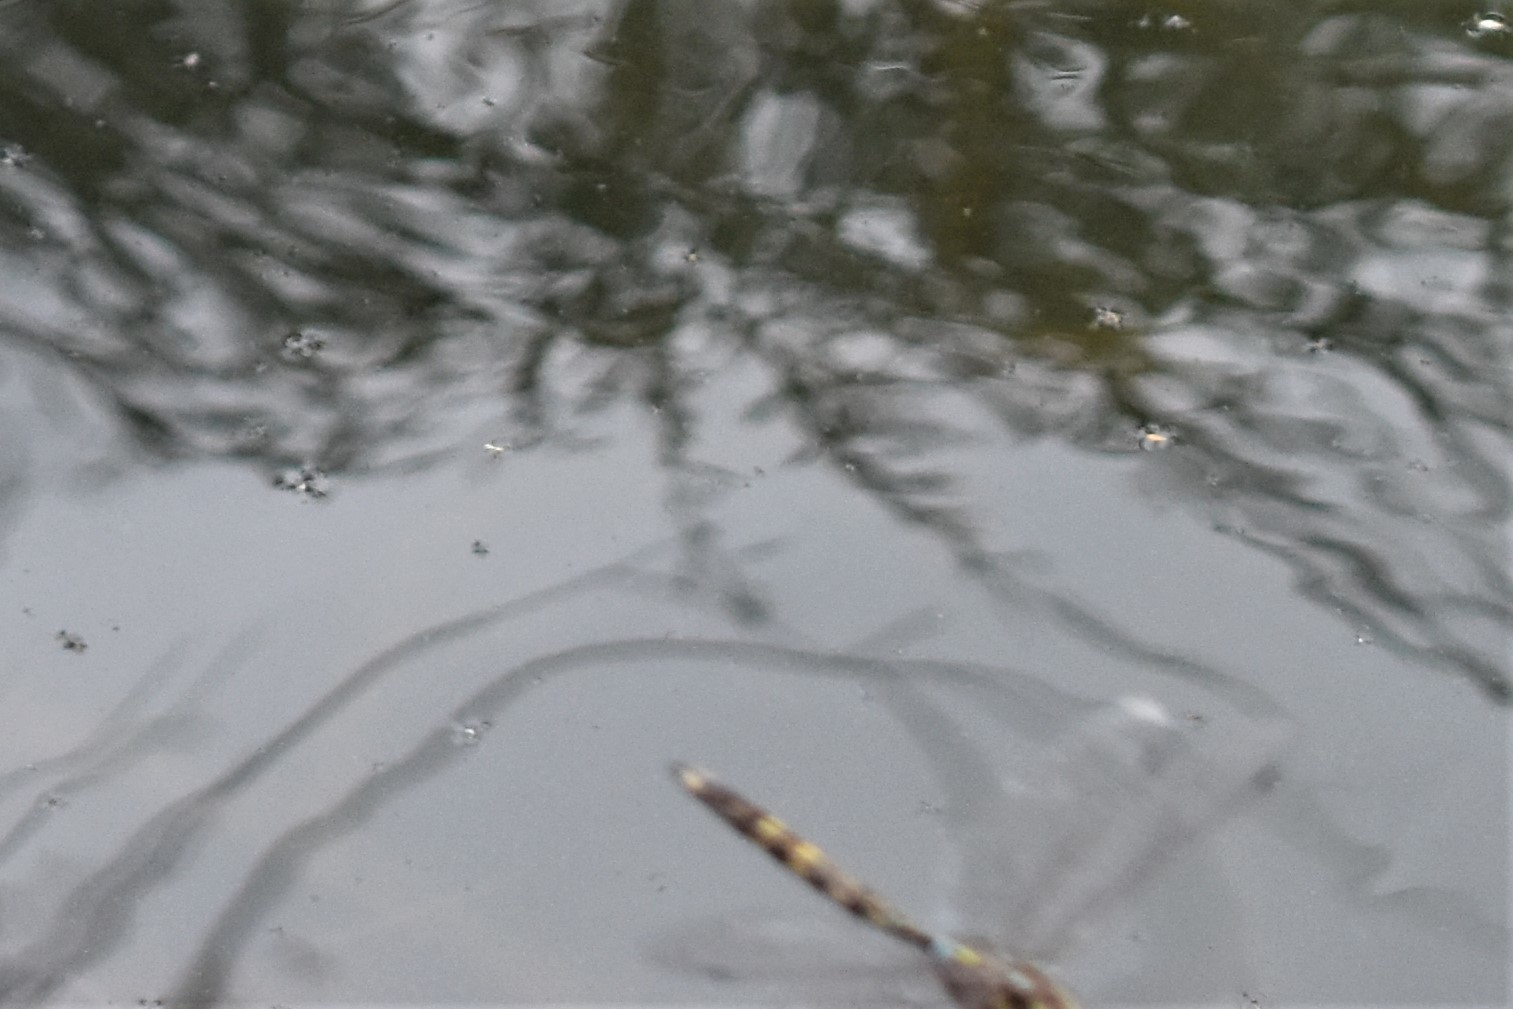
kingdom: Animalia
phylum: Arthropoda
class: Insecta
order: Odonata
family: Aeshnidae
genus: Aeshna
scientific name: Aeshna brevistyla
